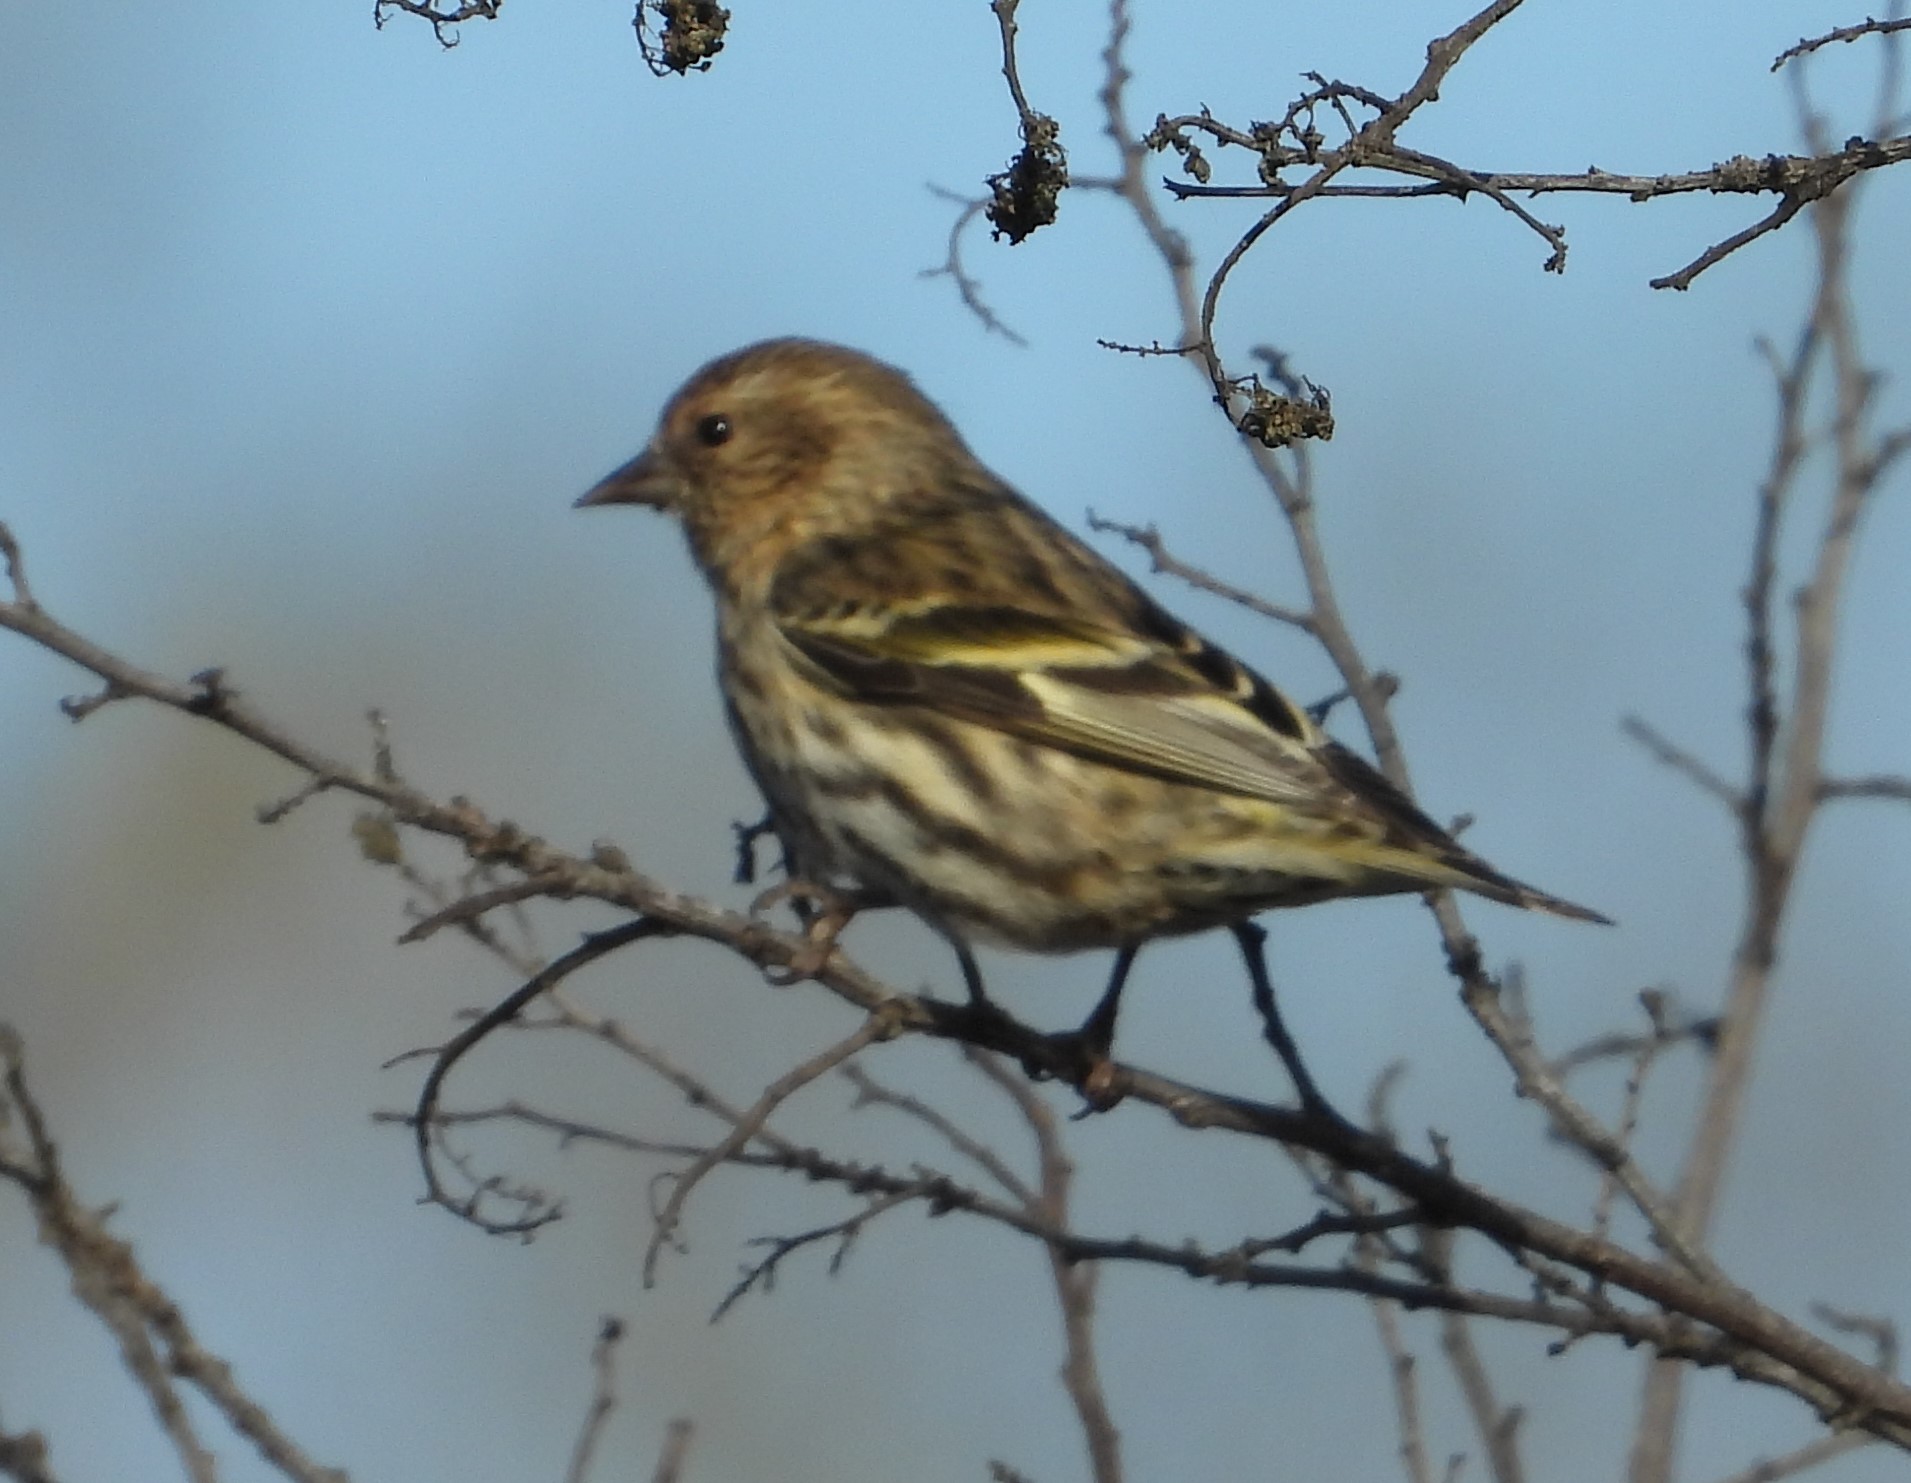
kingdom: Animalia
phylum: Chordata
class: Aves
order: Passeriformes
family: Fringillidae
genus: Spinus
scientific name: Spinus pinus
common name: Pine siskin
